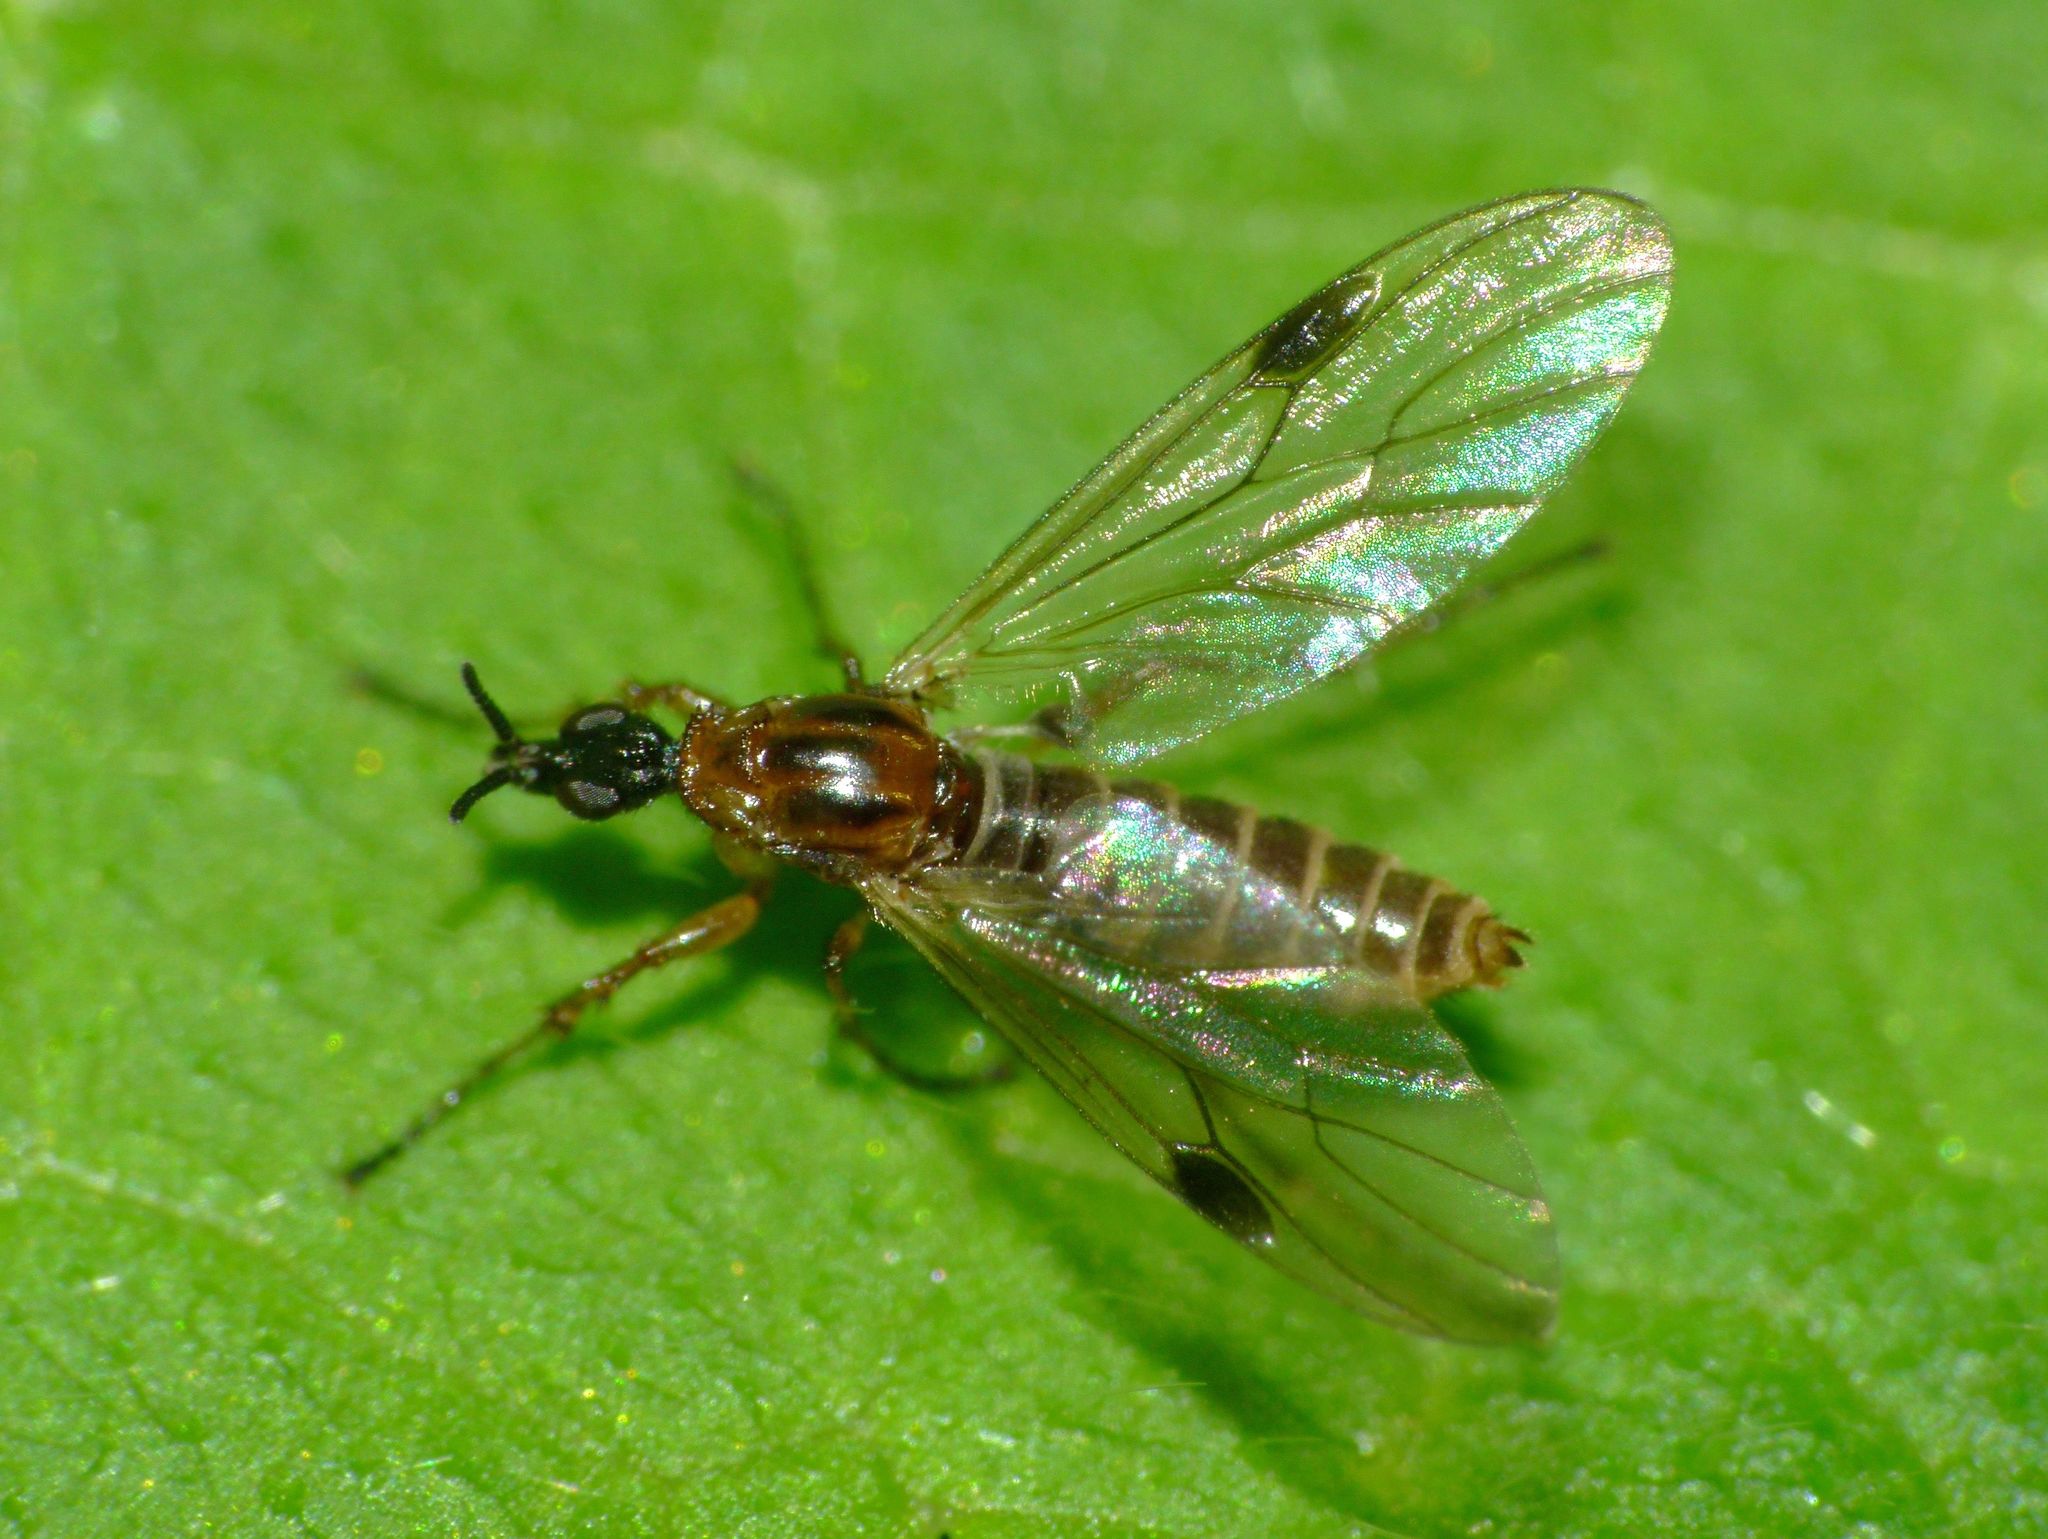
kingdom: Animalia
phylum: Arthropoda
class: Insecta
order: Diptera
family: Bibionidae
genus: Dilophus
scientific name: Dilophus segnis
